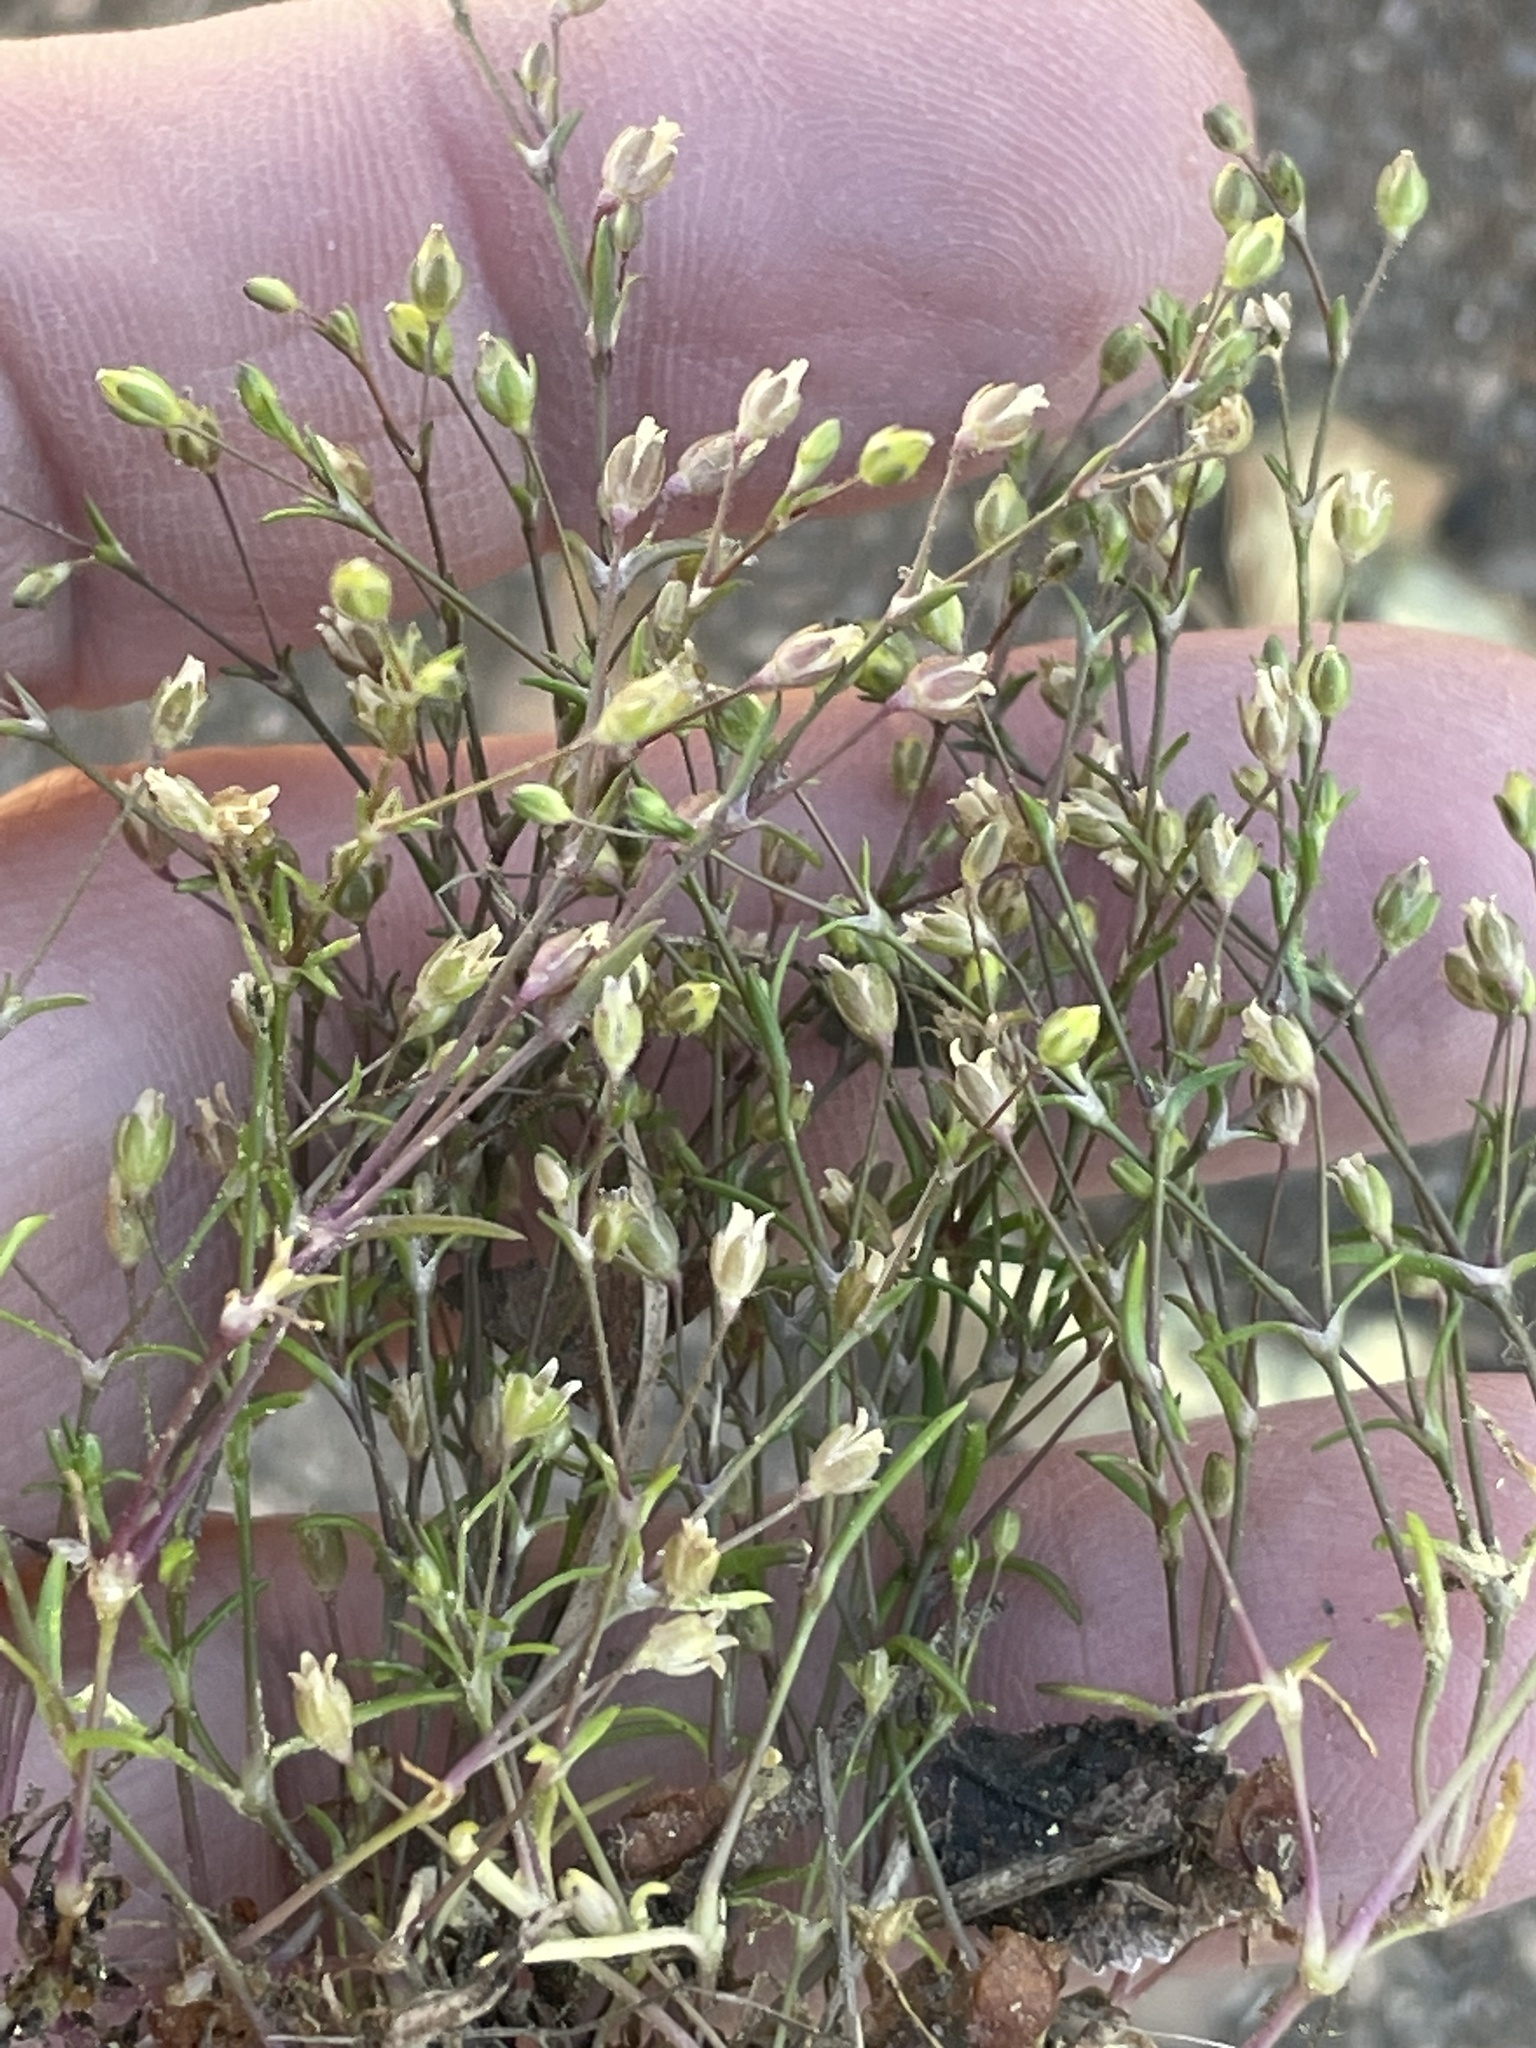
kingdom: Plantae
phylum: Tracheophyta
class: Magnoliopsida
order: Caryophyllales
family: Caryophyllaceae
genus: Sagina
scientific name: Sagina decumbens
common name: Decumbent pearlwort
